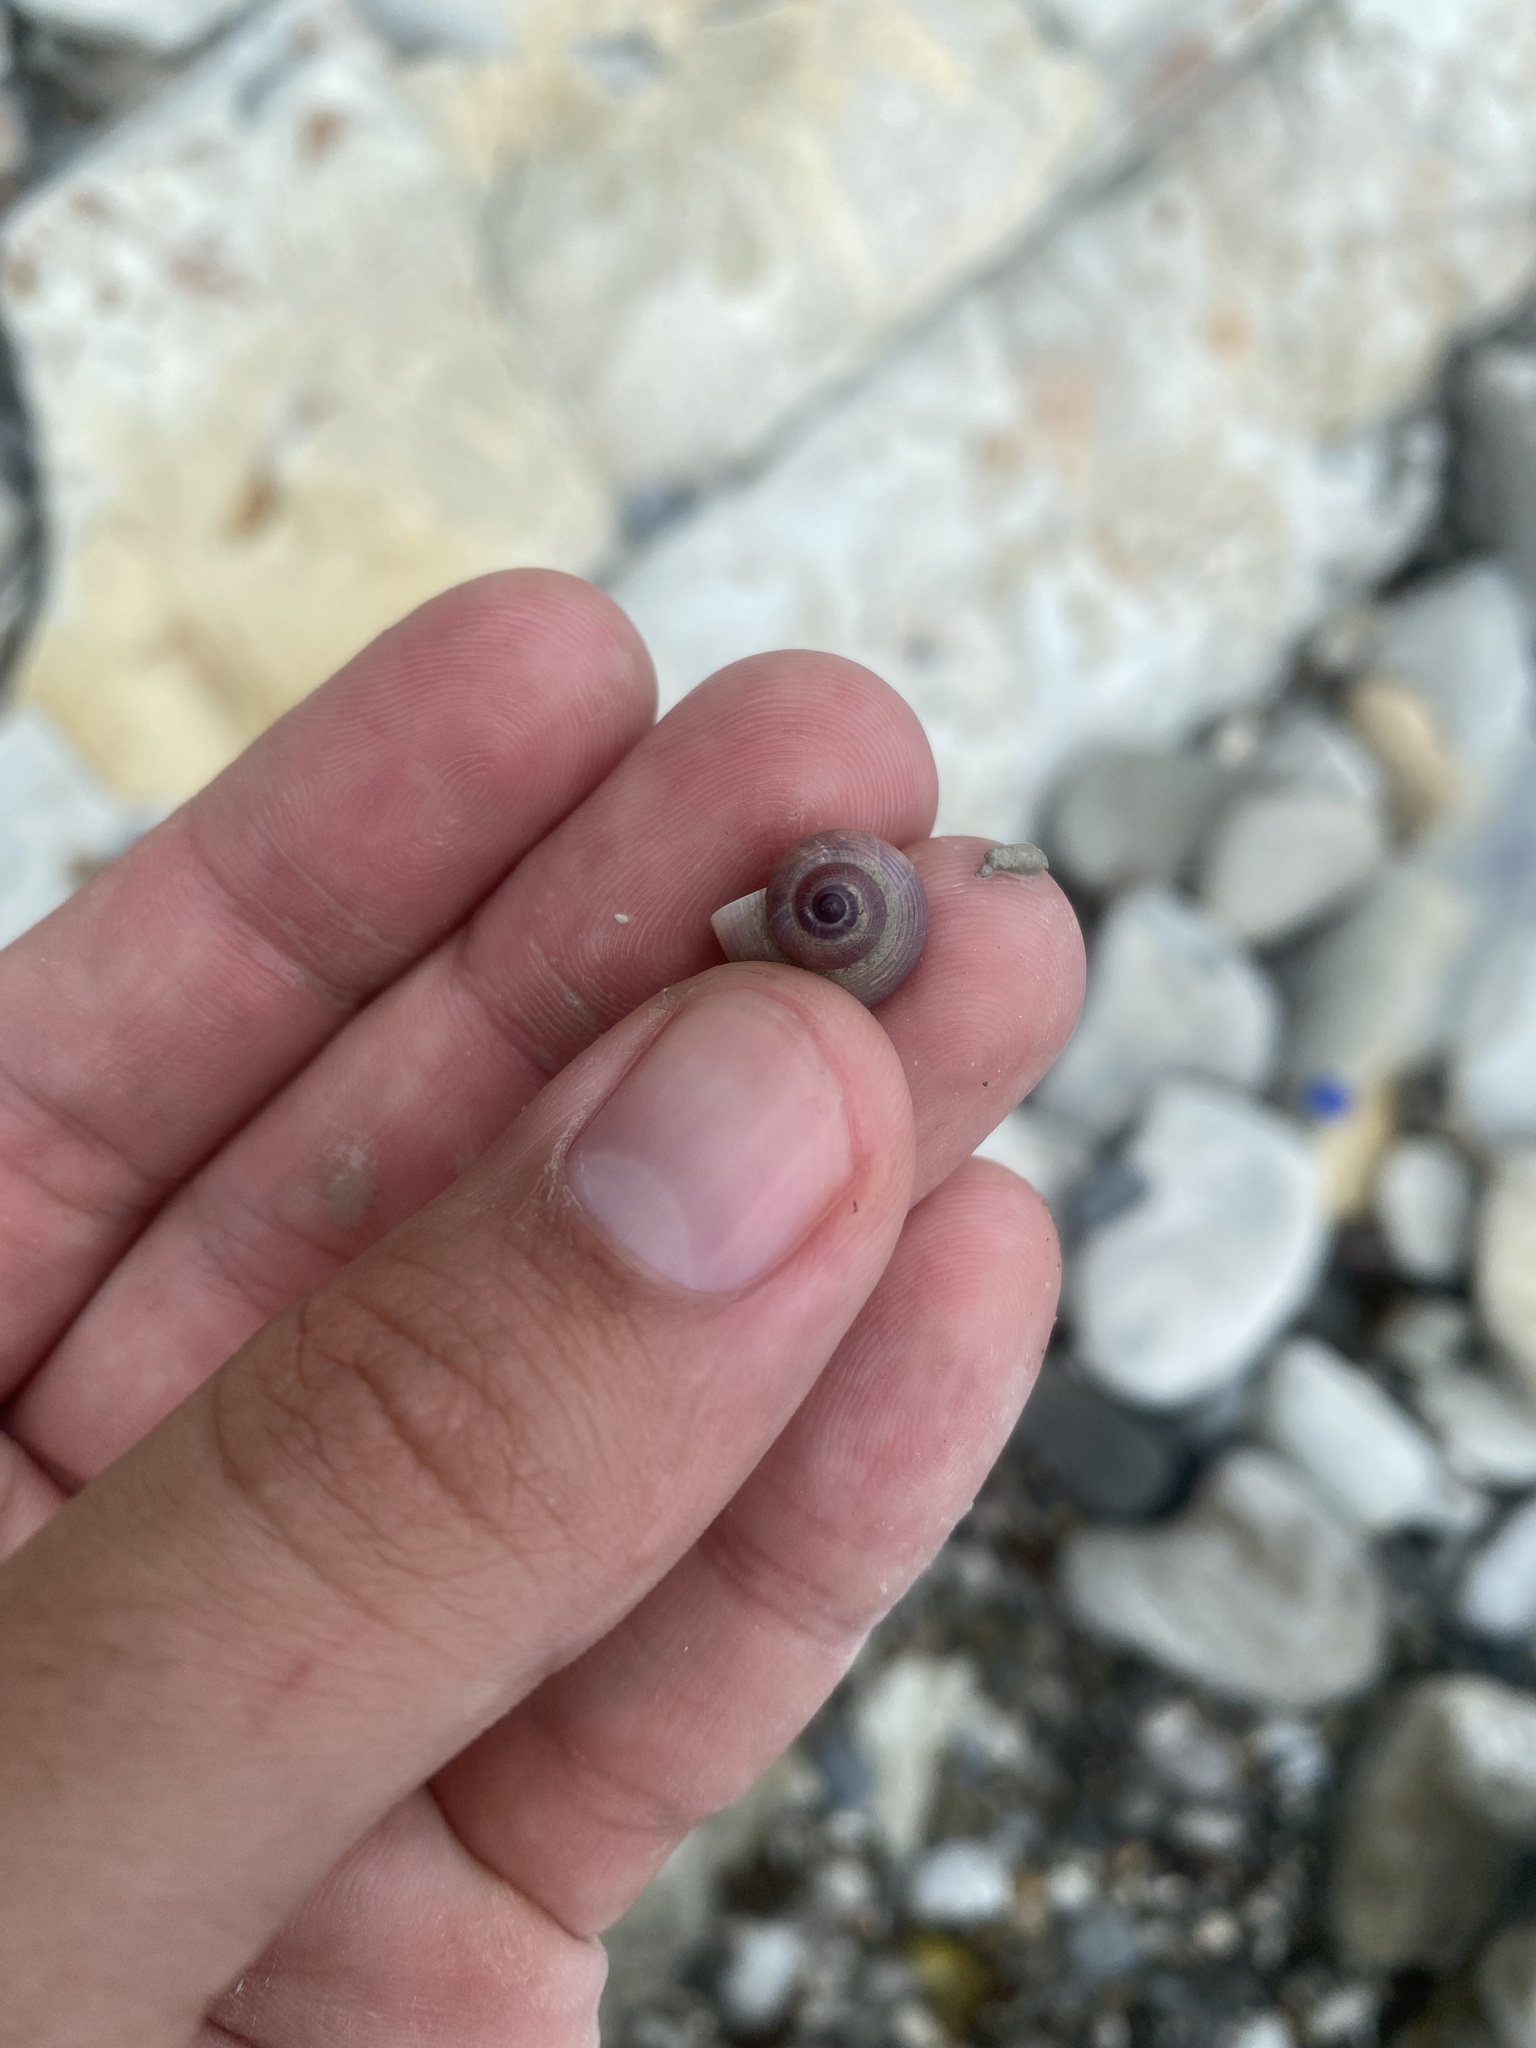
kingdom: Plantae
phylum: Tracheophyta
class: Magnoliopsida
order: Fabales
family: Fabaceae
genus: Coronilla
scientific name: Coronilla varia
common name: Crownvetch
